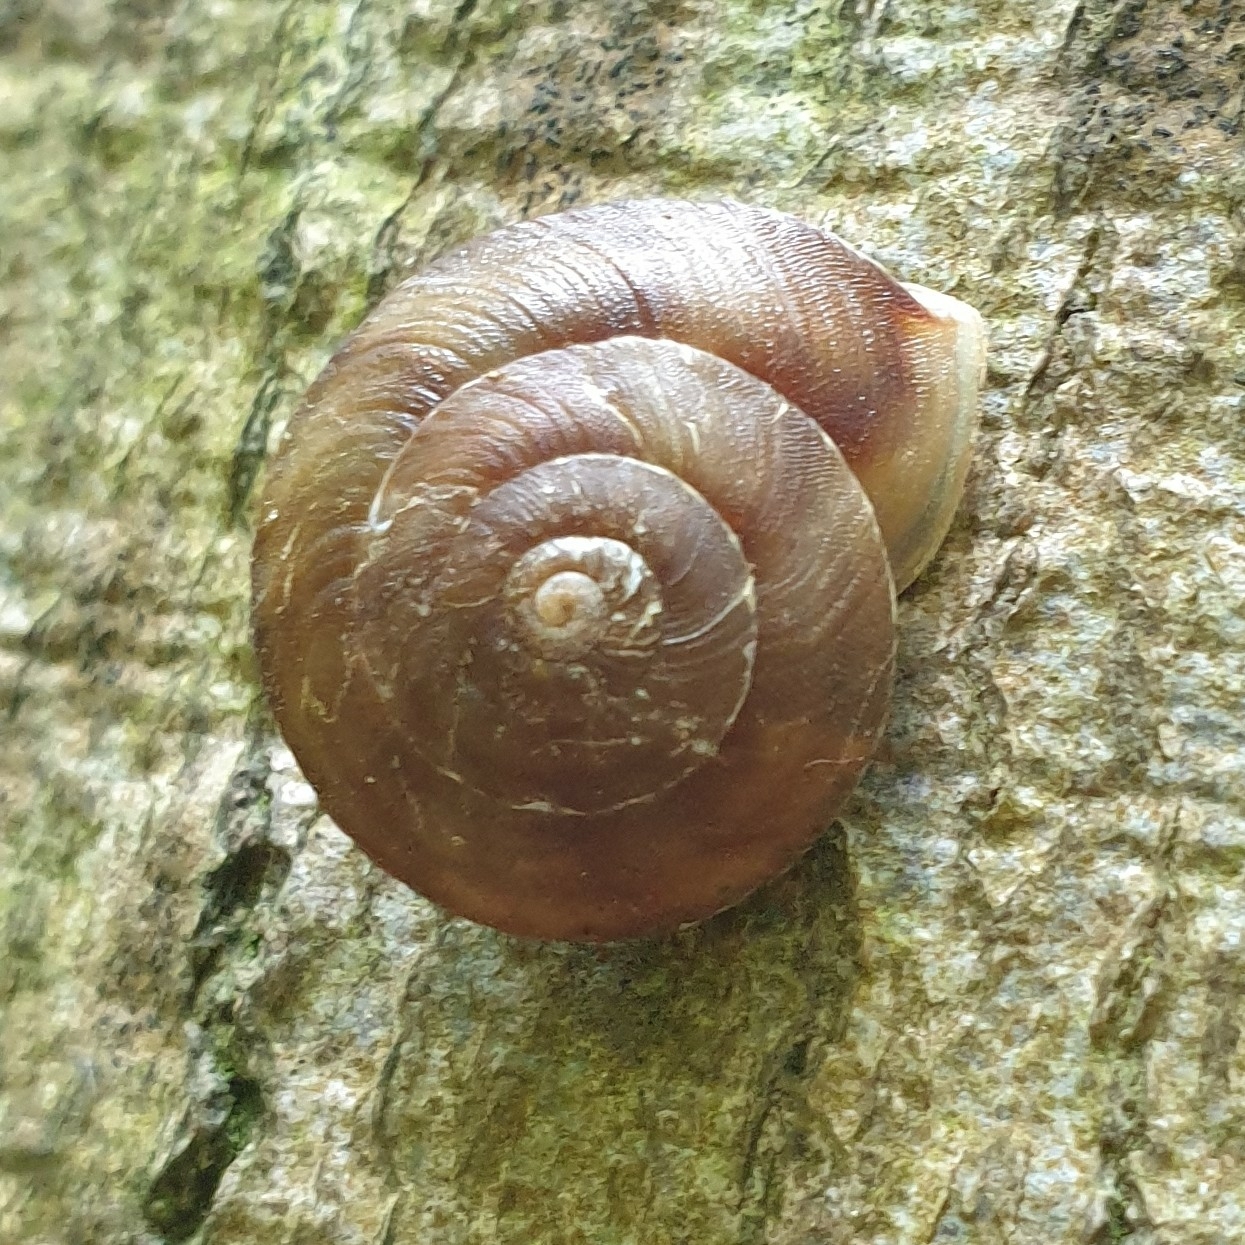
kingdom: Animalia
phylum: Mollusca
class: Gastropoda
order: Stylommatophora
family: Helicidae
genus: Helicigona
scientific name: Helicigona lapicida
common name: Lapidary snail
